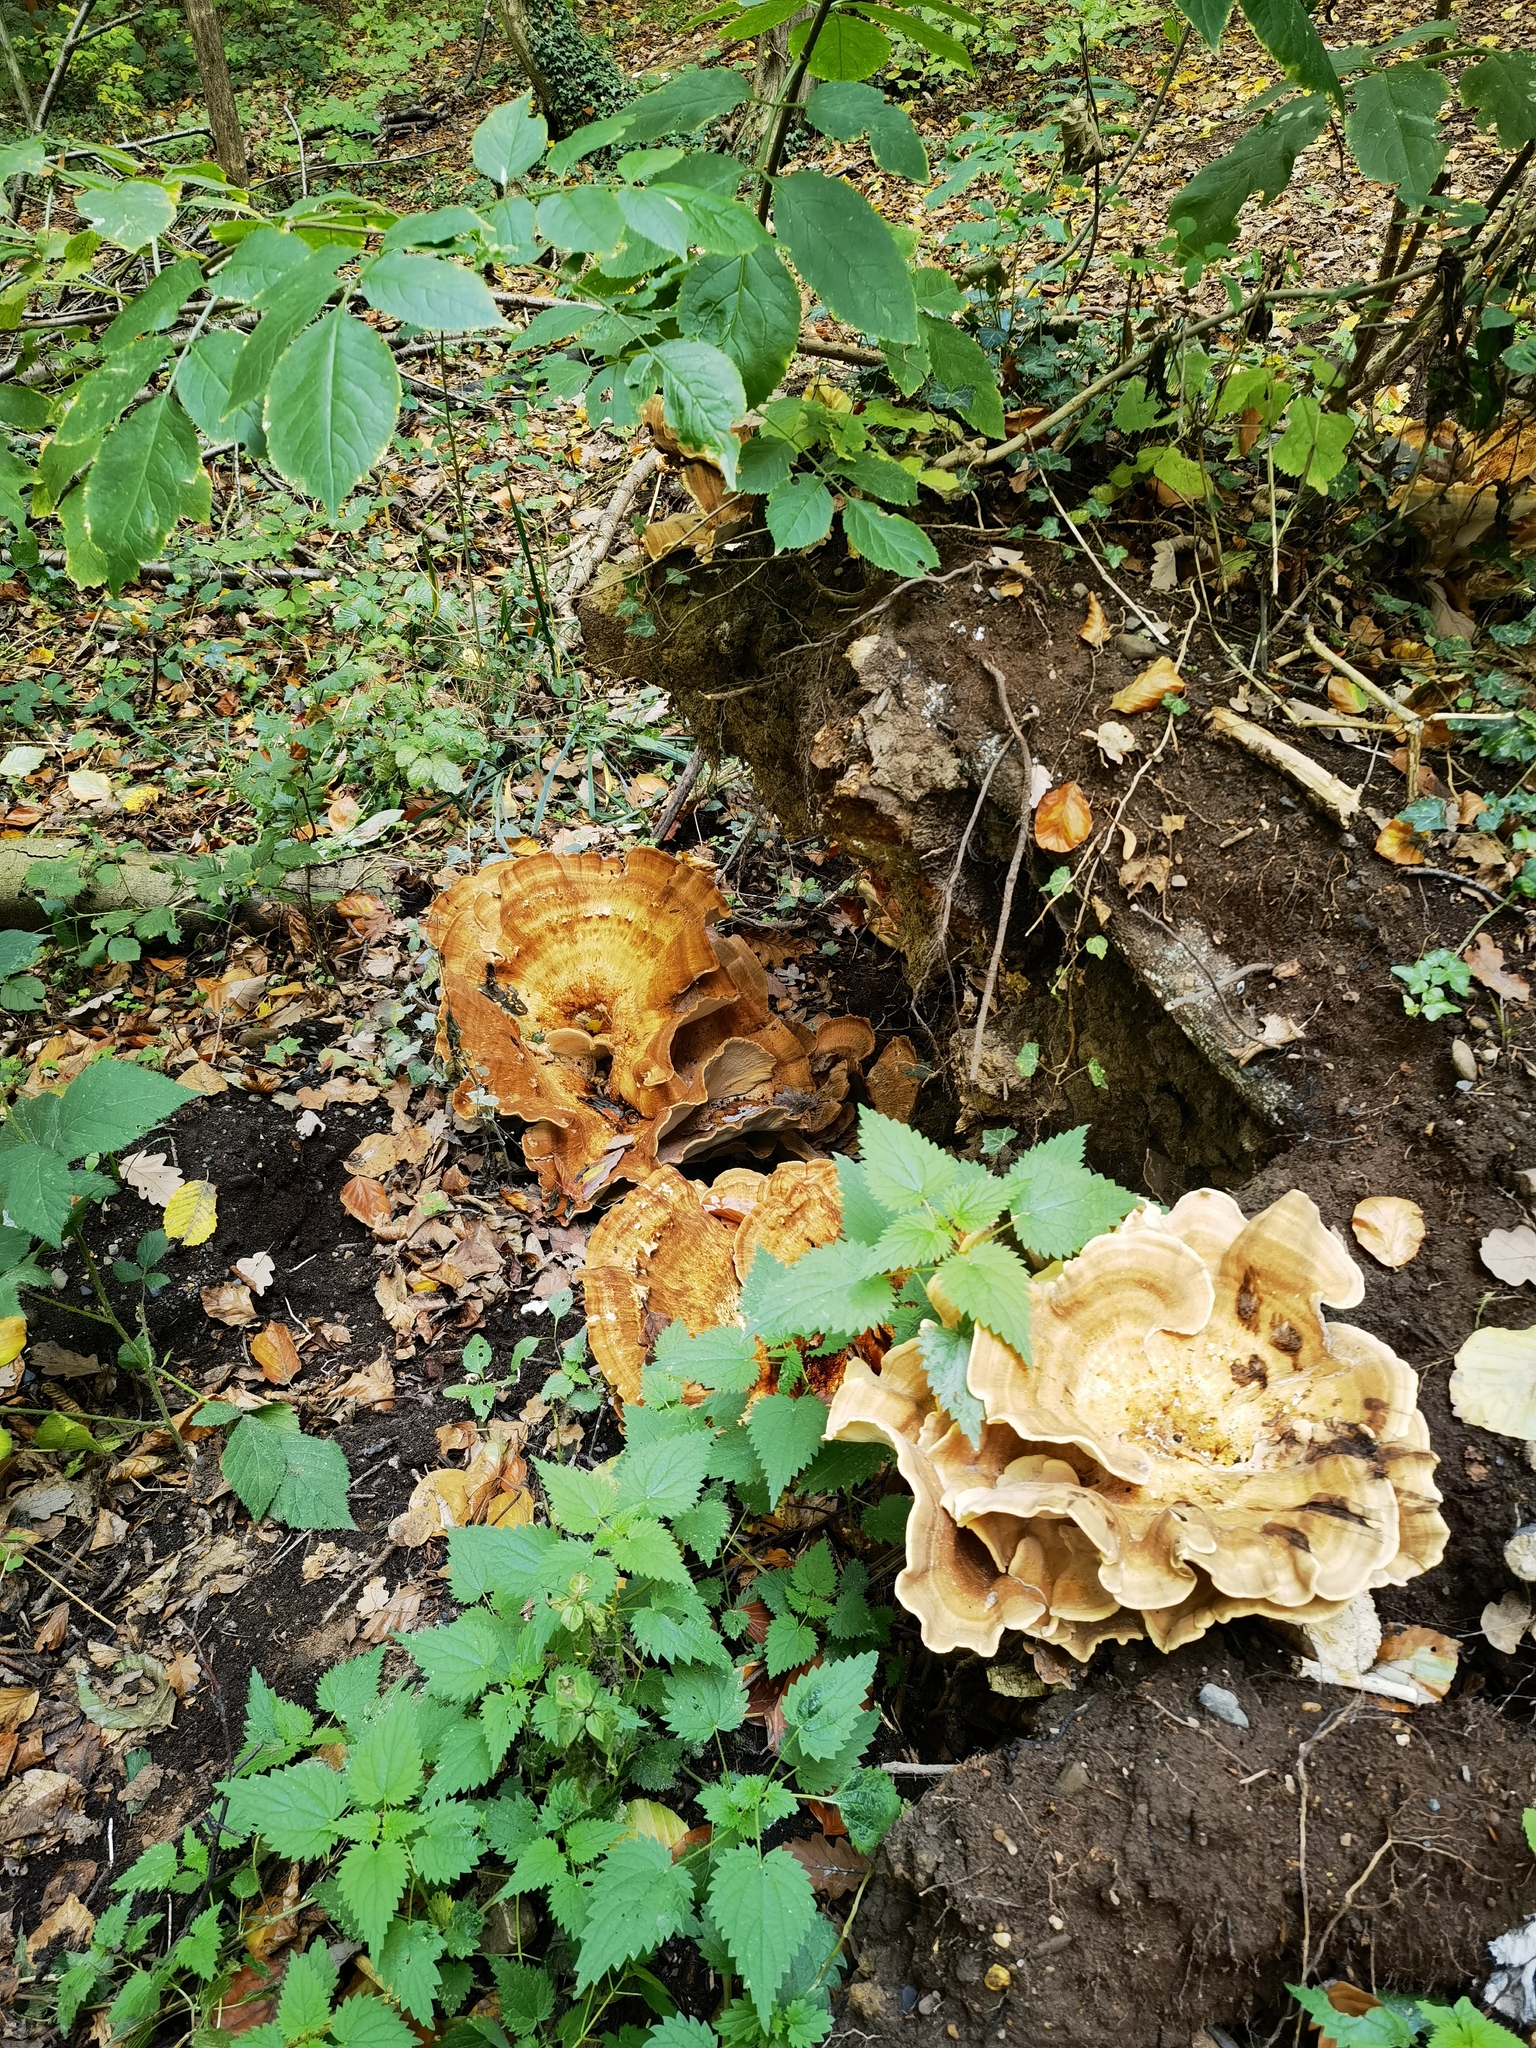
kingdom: Fungi
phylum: Basidiomycota
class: Agaricomycetes
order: Polyporales
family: Meripilaceae
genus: Meripilus
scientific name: Meripilus giganteus
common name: Giant polypore
